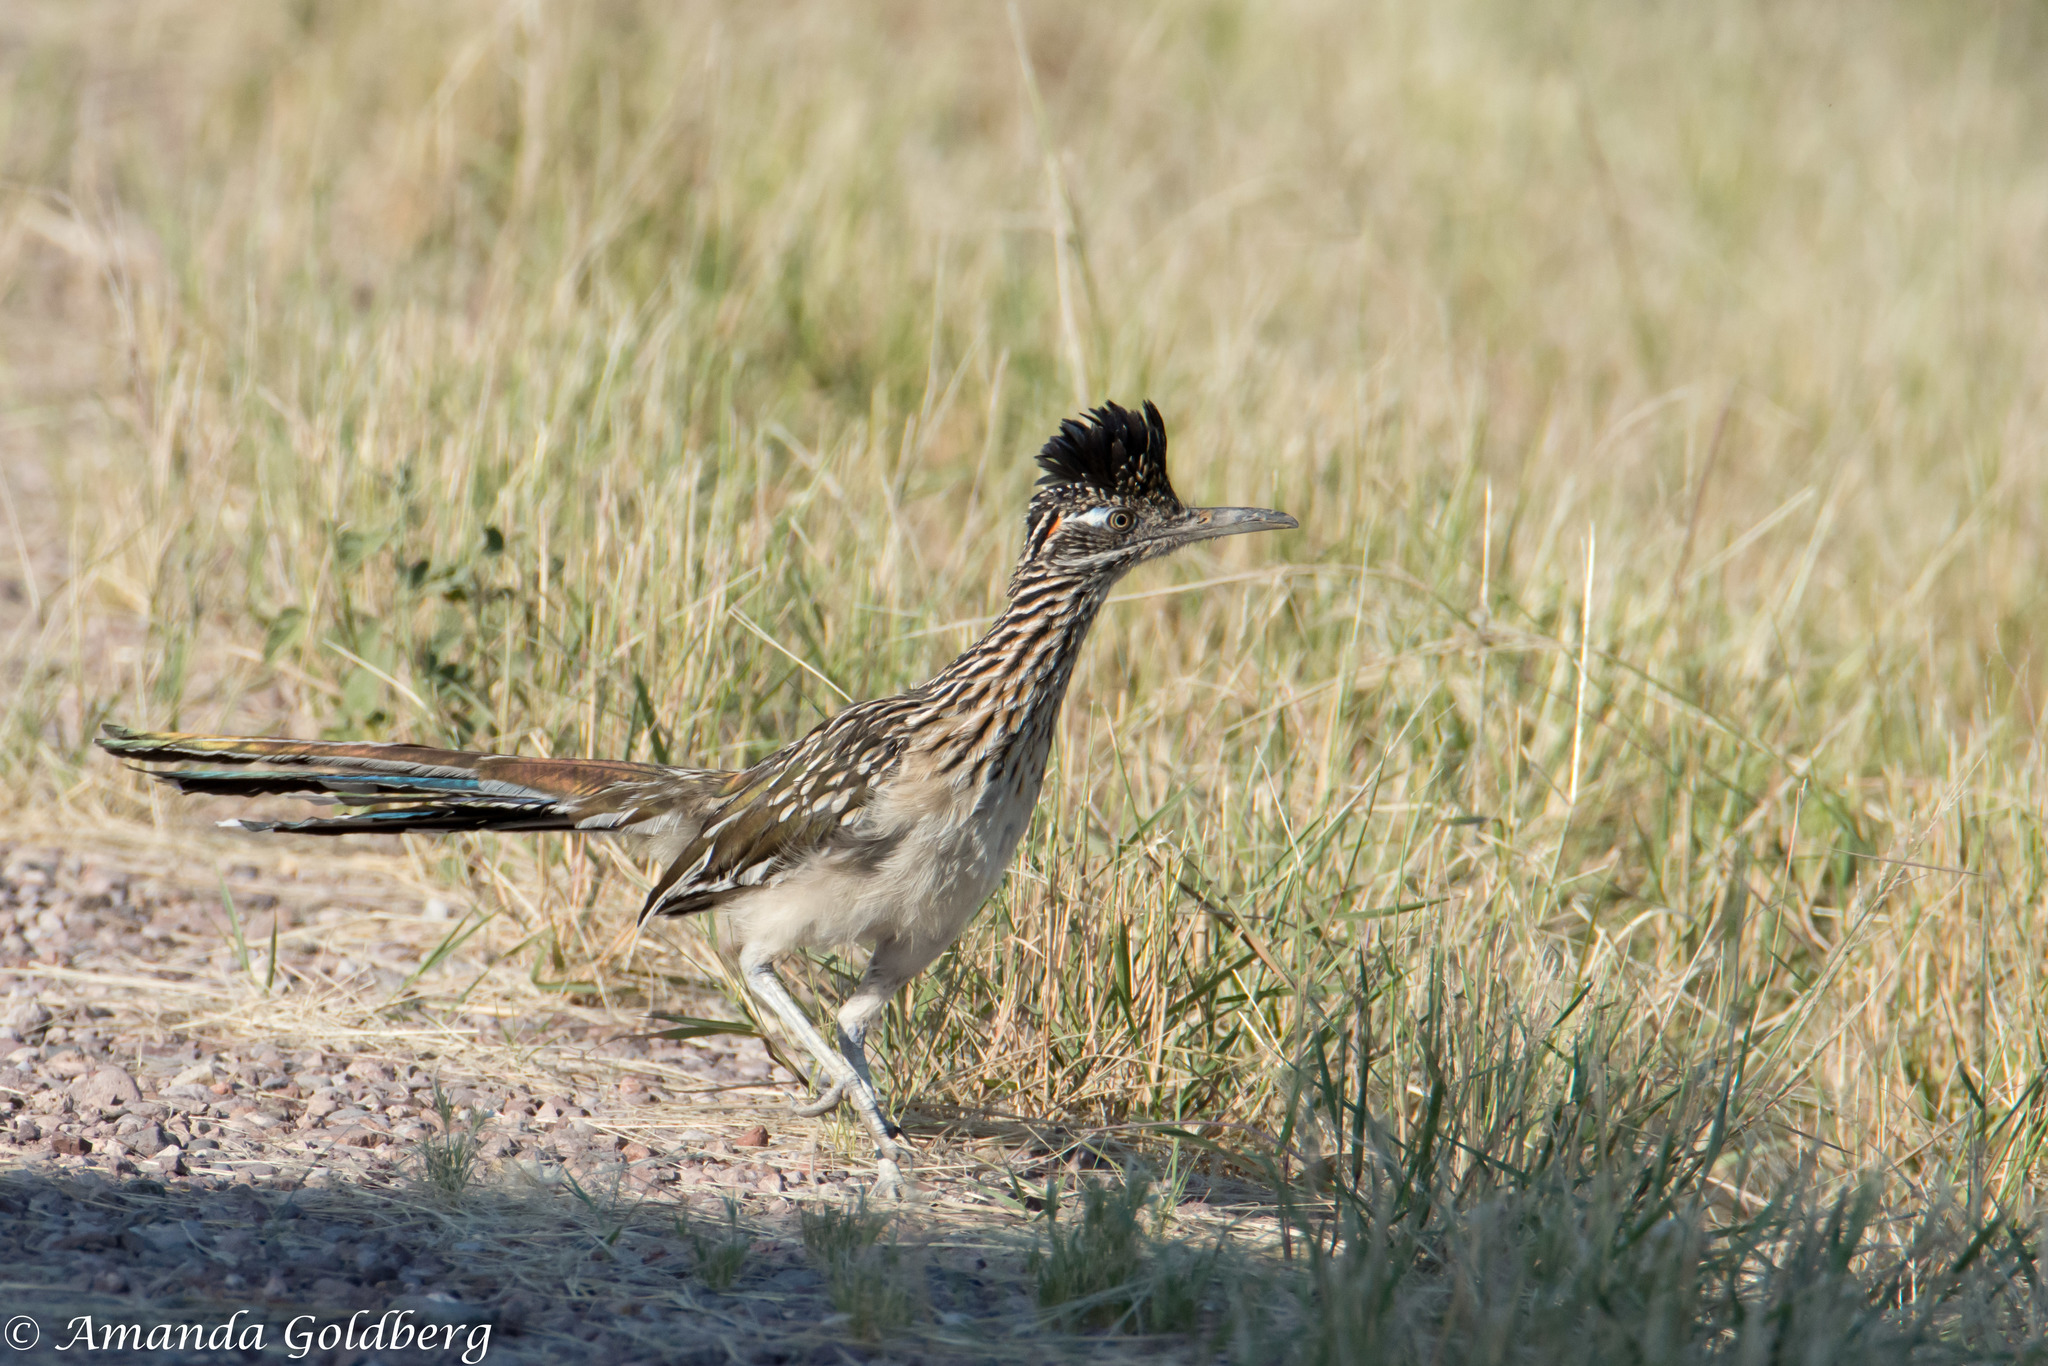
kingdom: Animalia
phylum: Chordata
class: Aves
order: Cuculiformes
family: Cuculidae
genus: Geococcyx
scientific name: Geococcyx californianus
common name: Greater roadrunner
